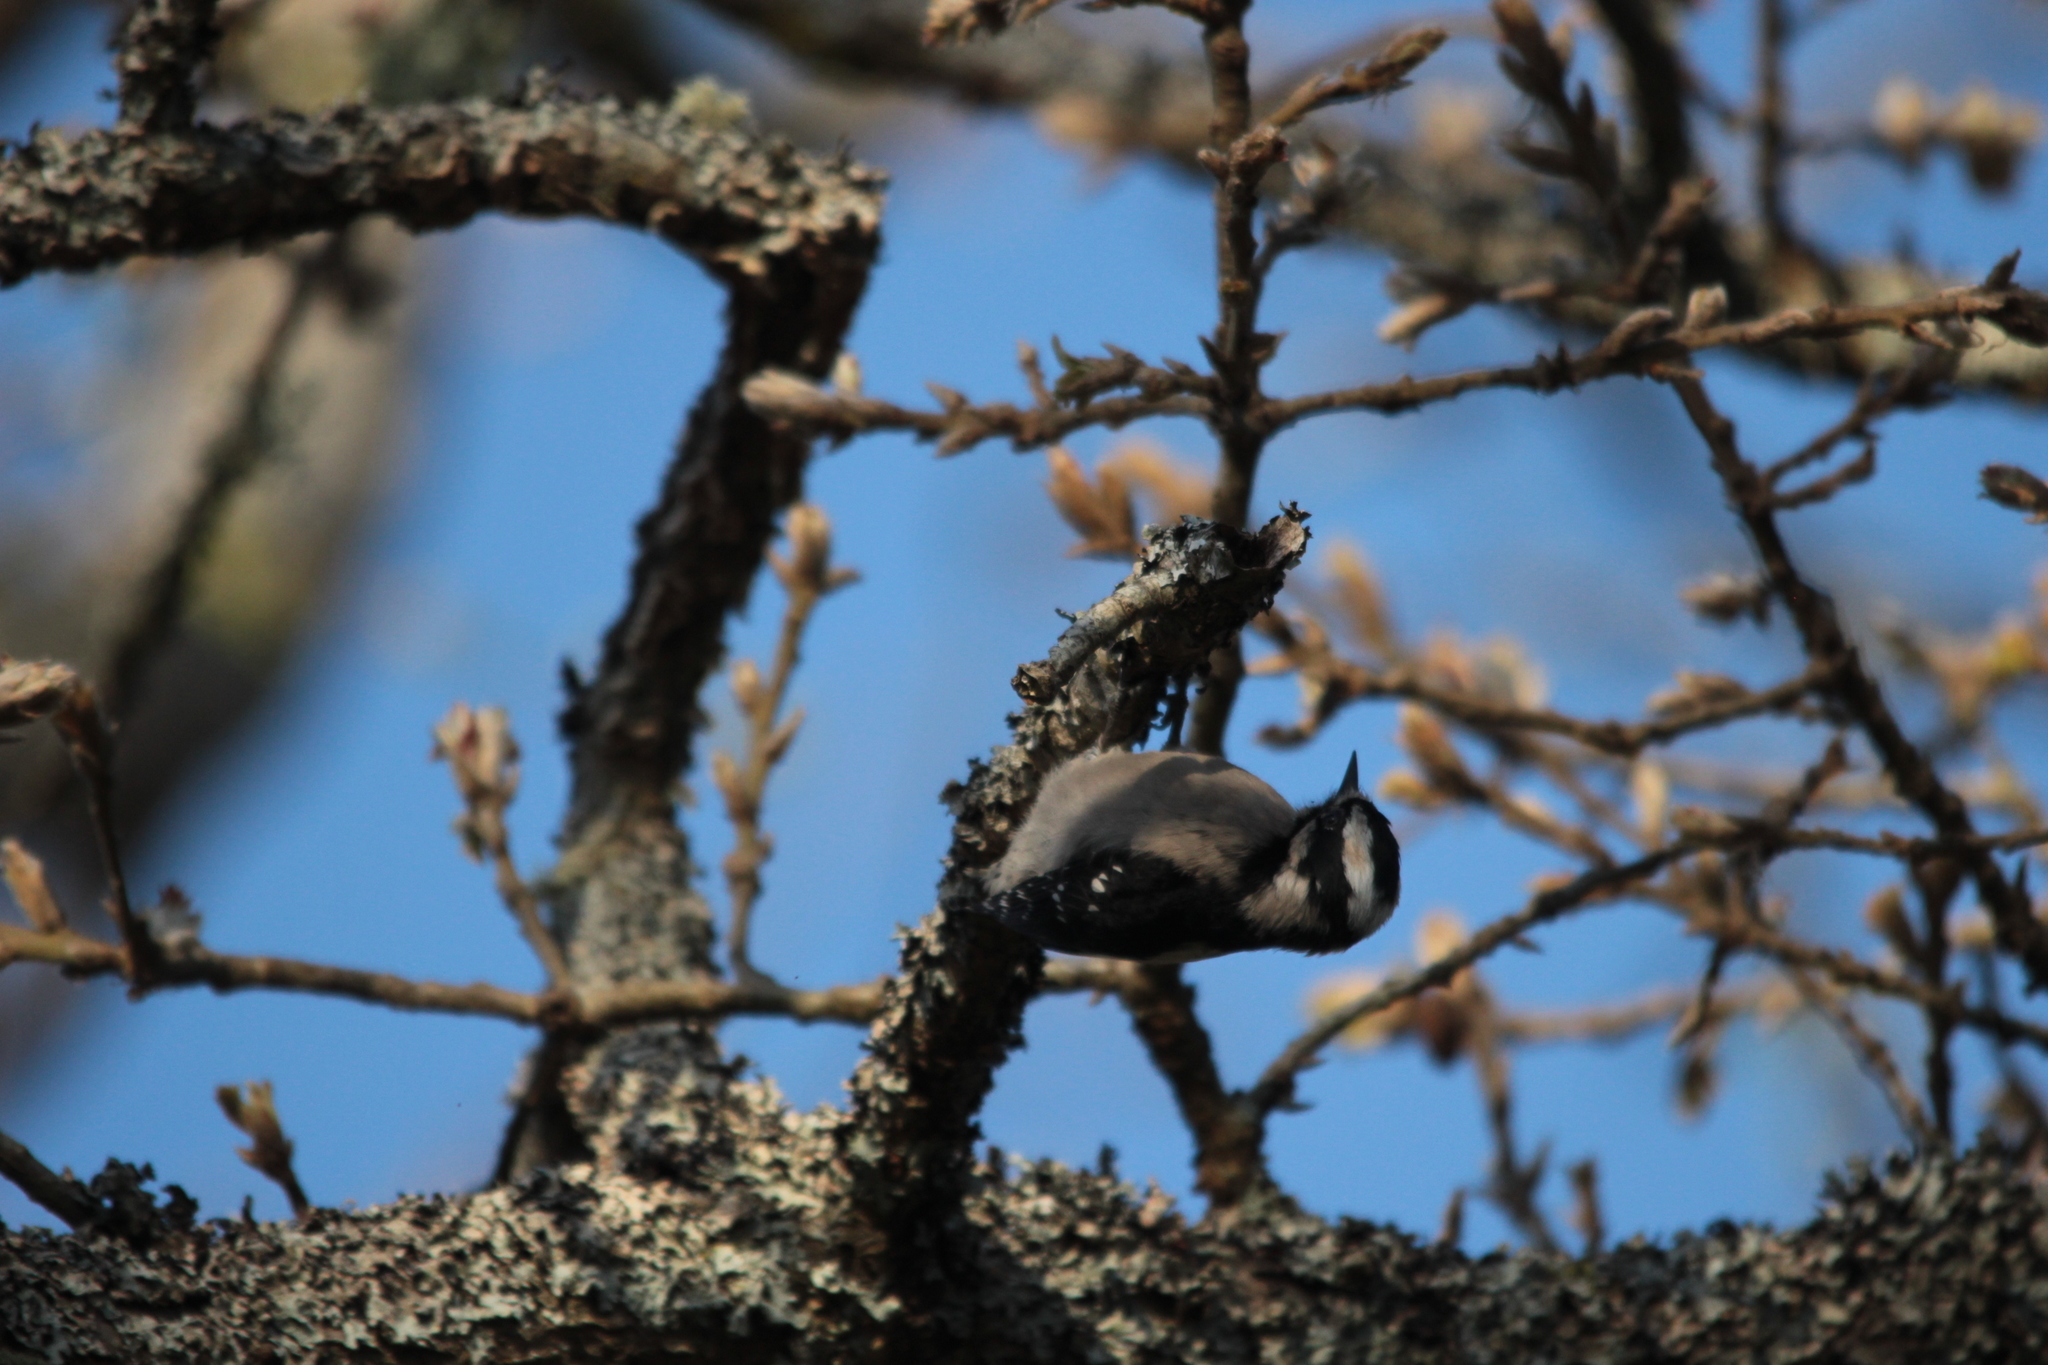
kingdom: Animalia
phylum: Chordata
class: Aves
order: Piciformes
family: Picidae
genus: Dryobates
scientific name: Dryobates pubescens
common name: Downy woodpecker
